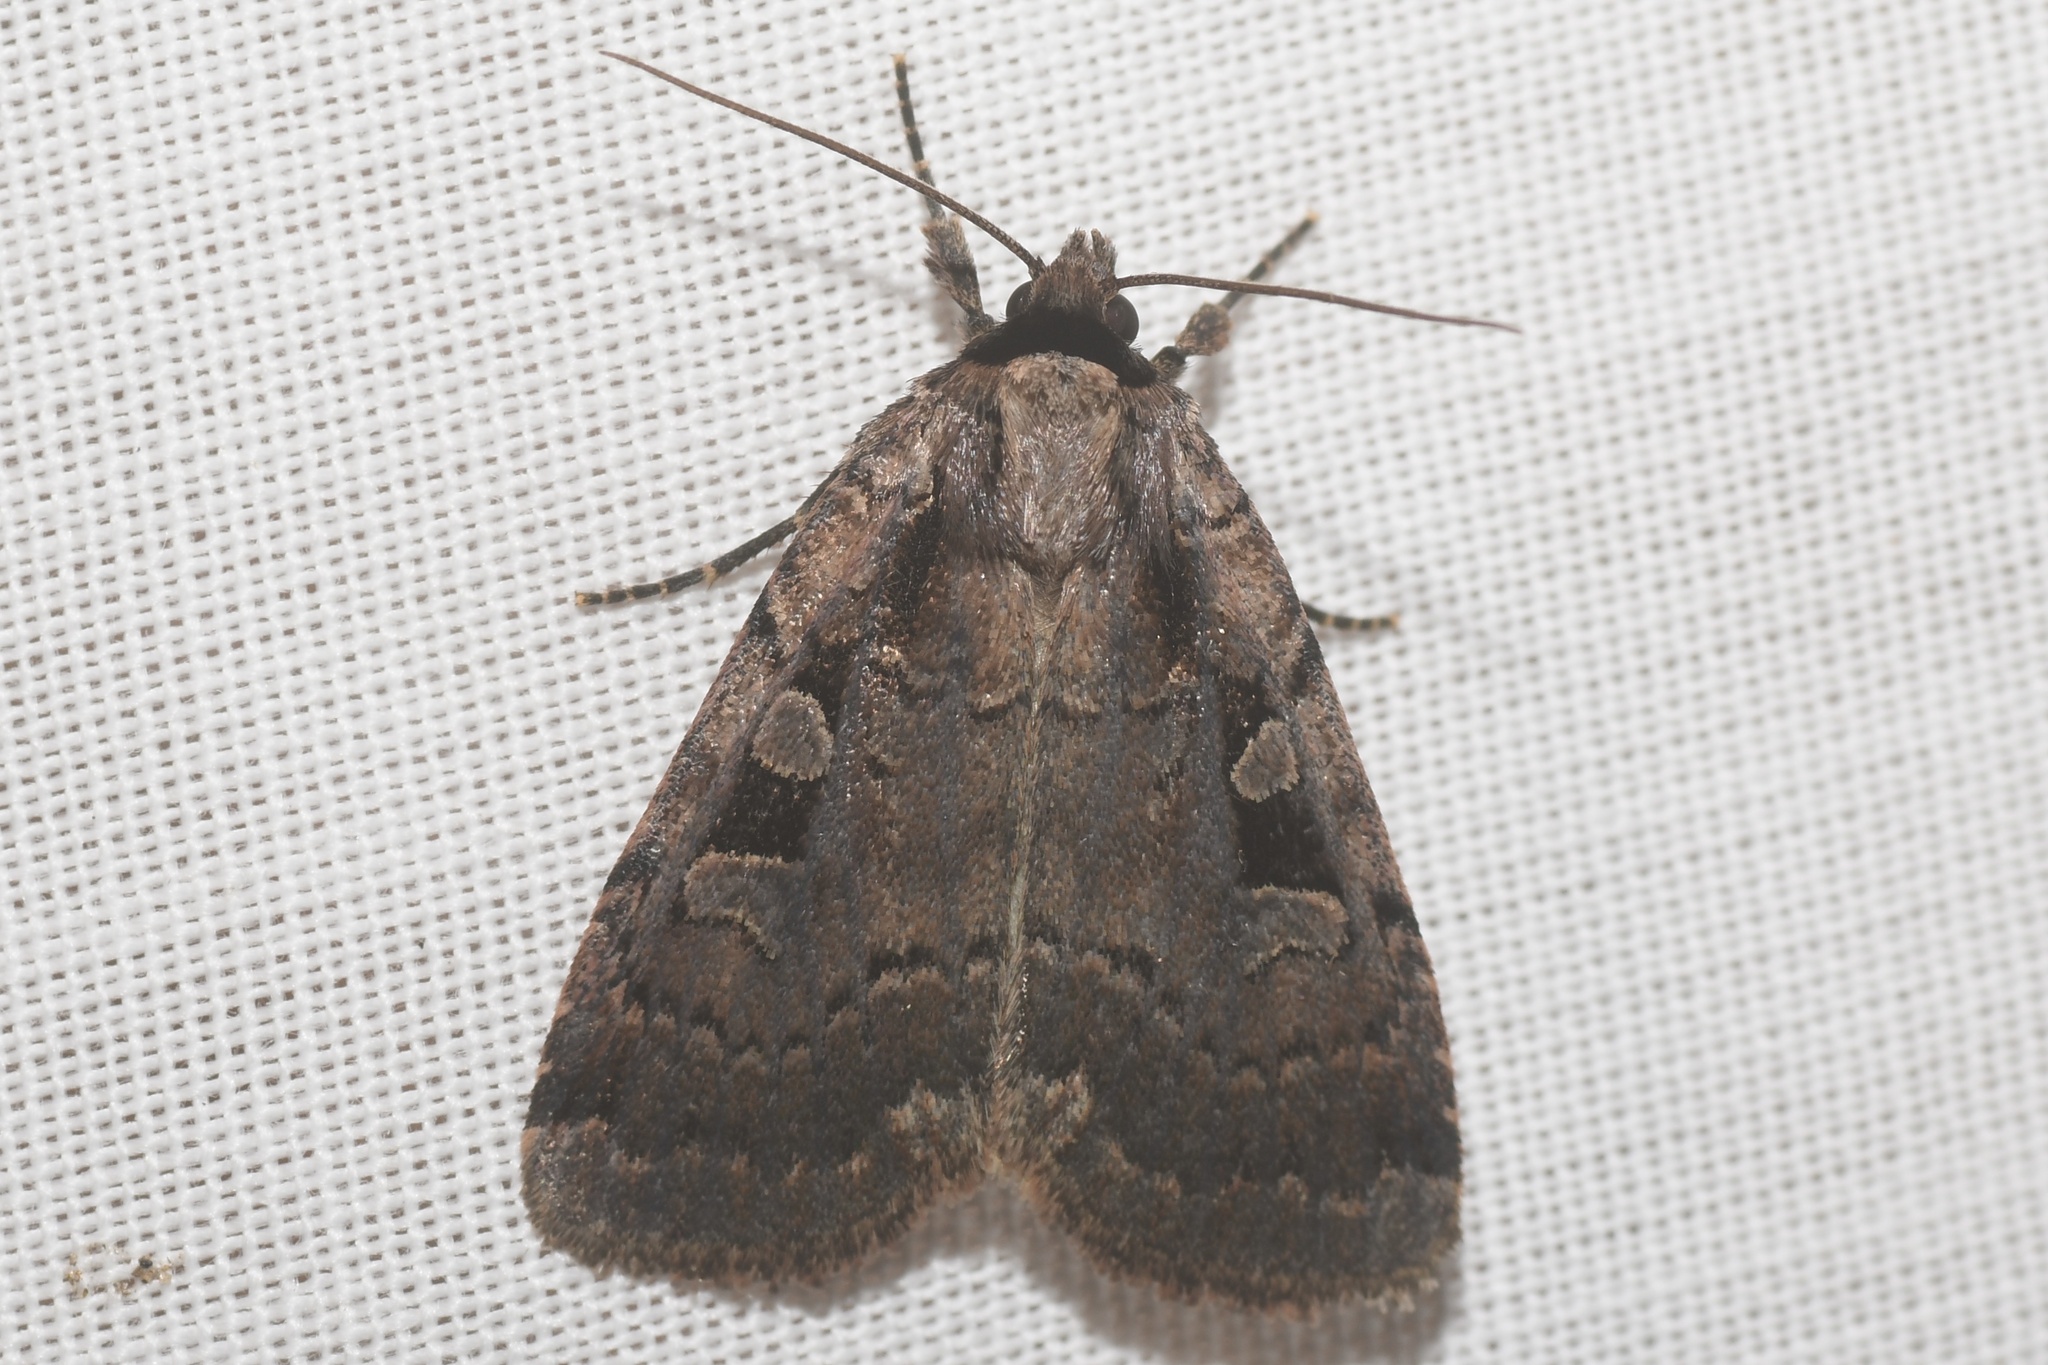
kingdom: Animalia
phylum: Arthropoda
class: Insecta
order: Lepidoptera
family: Noctuidae
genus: Eueretagrotis
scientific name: Eueretagrotis perattentus
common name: Two-spot dart moth
